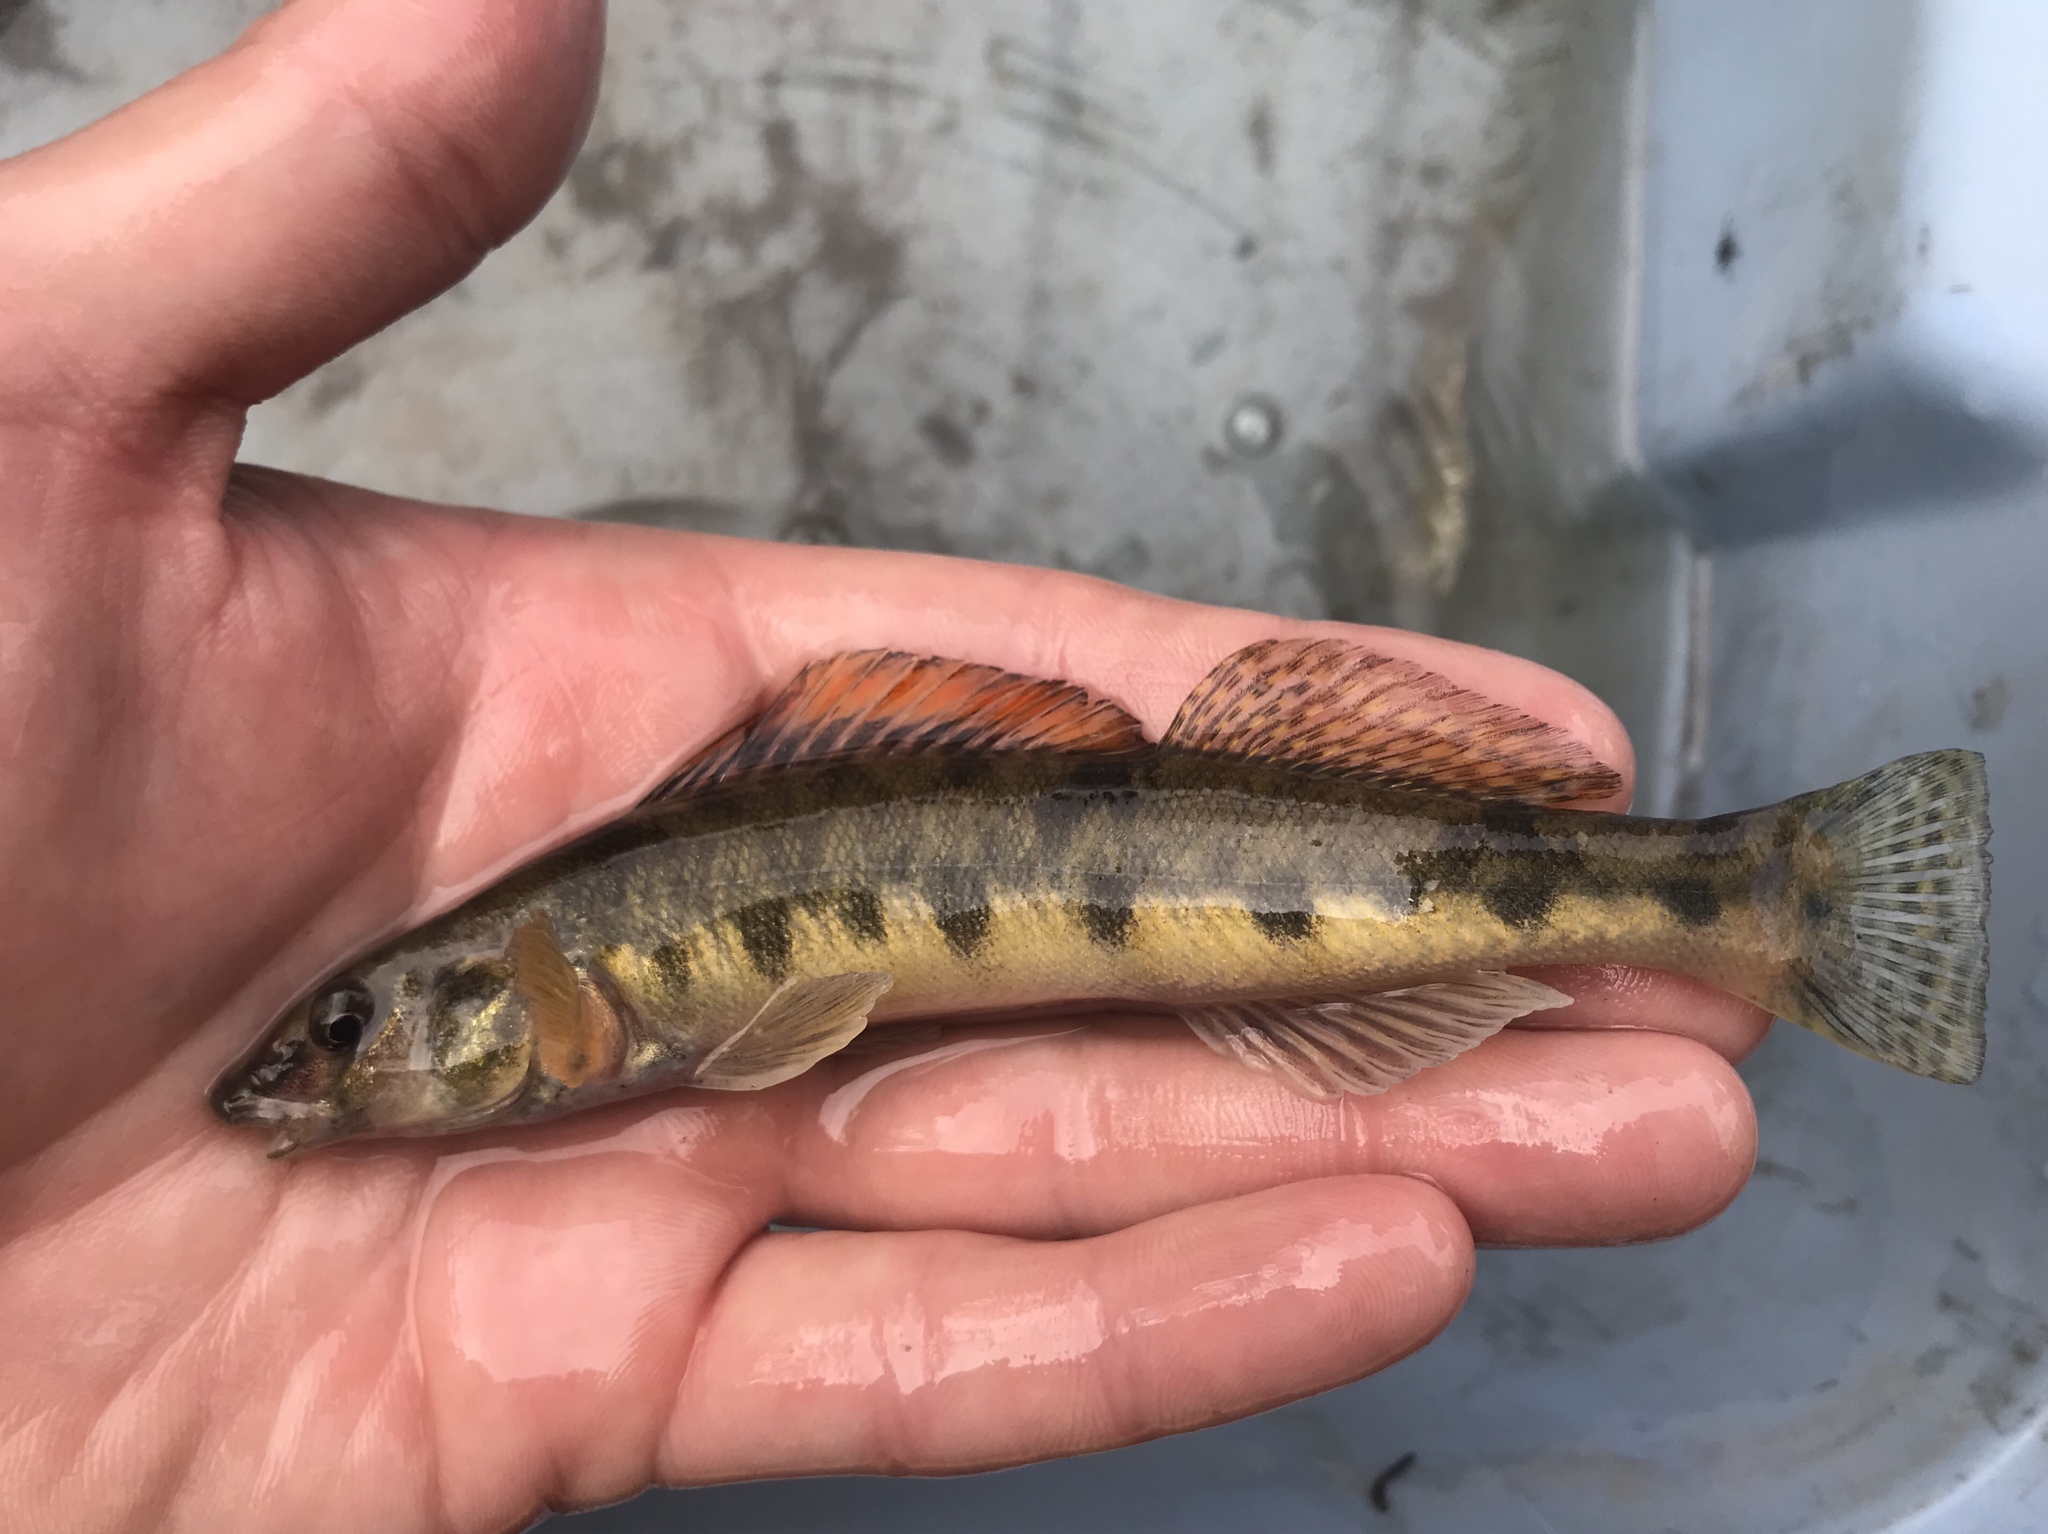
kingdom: Animalia
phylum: Chordata
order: Perciformes
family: Percidae
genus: Percina
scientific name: Percina carbonaria
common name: Texas logperch
